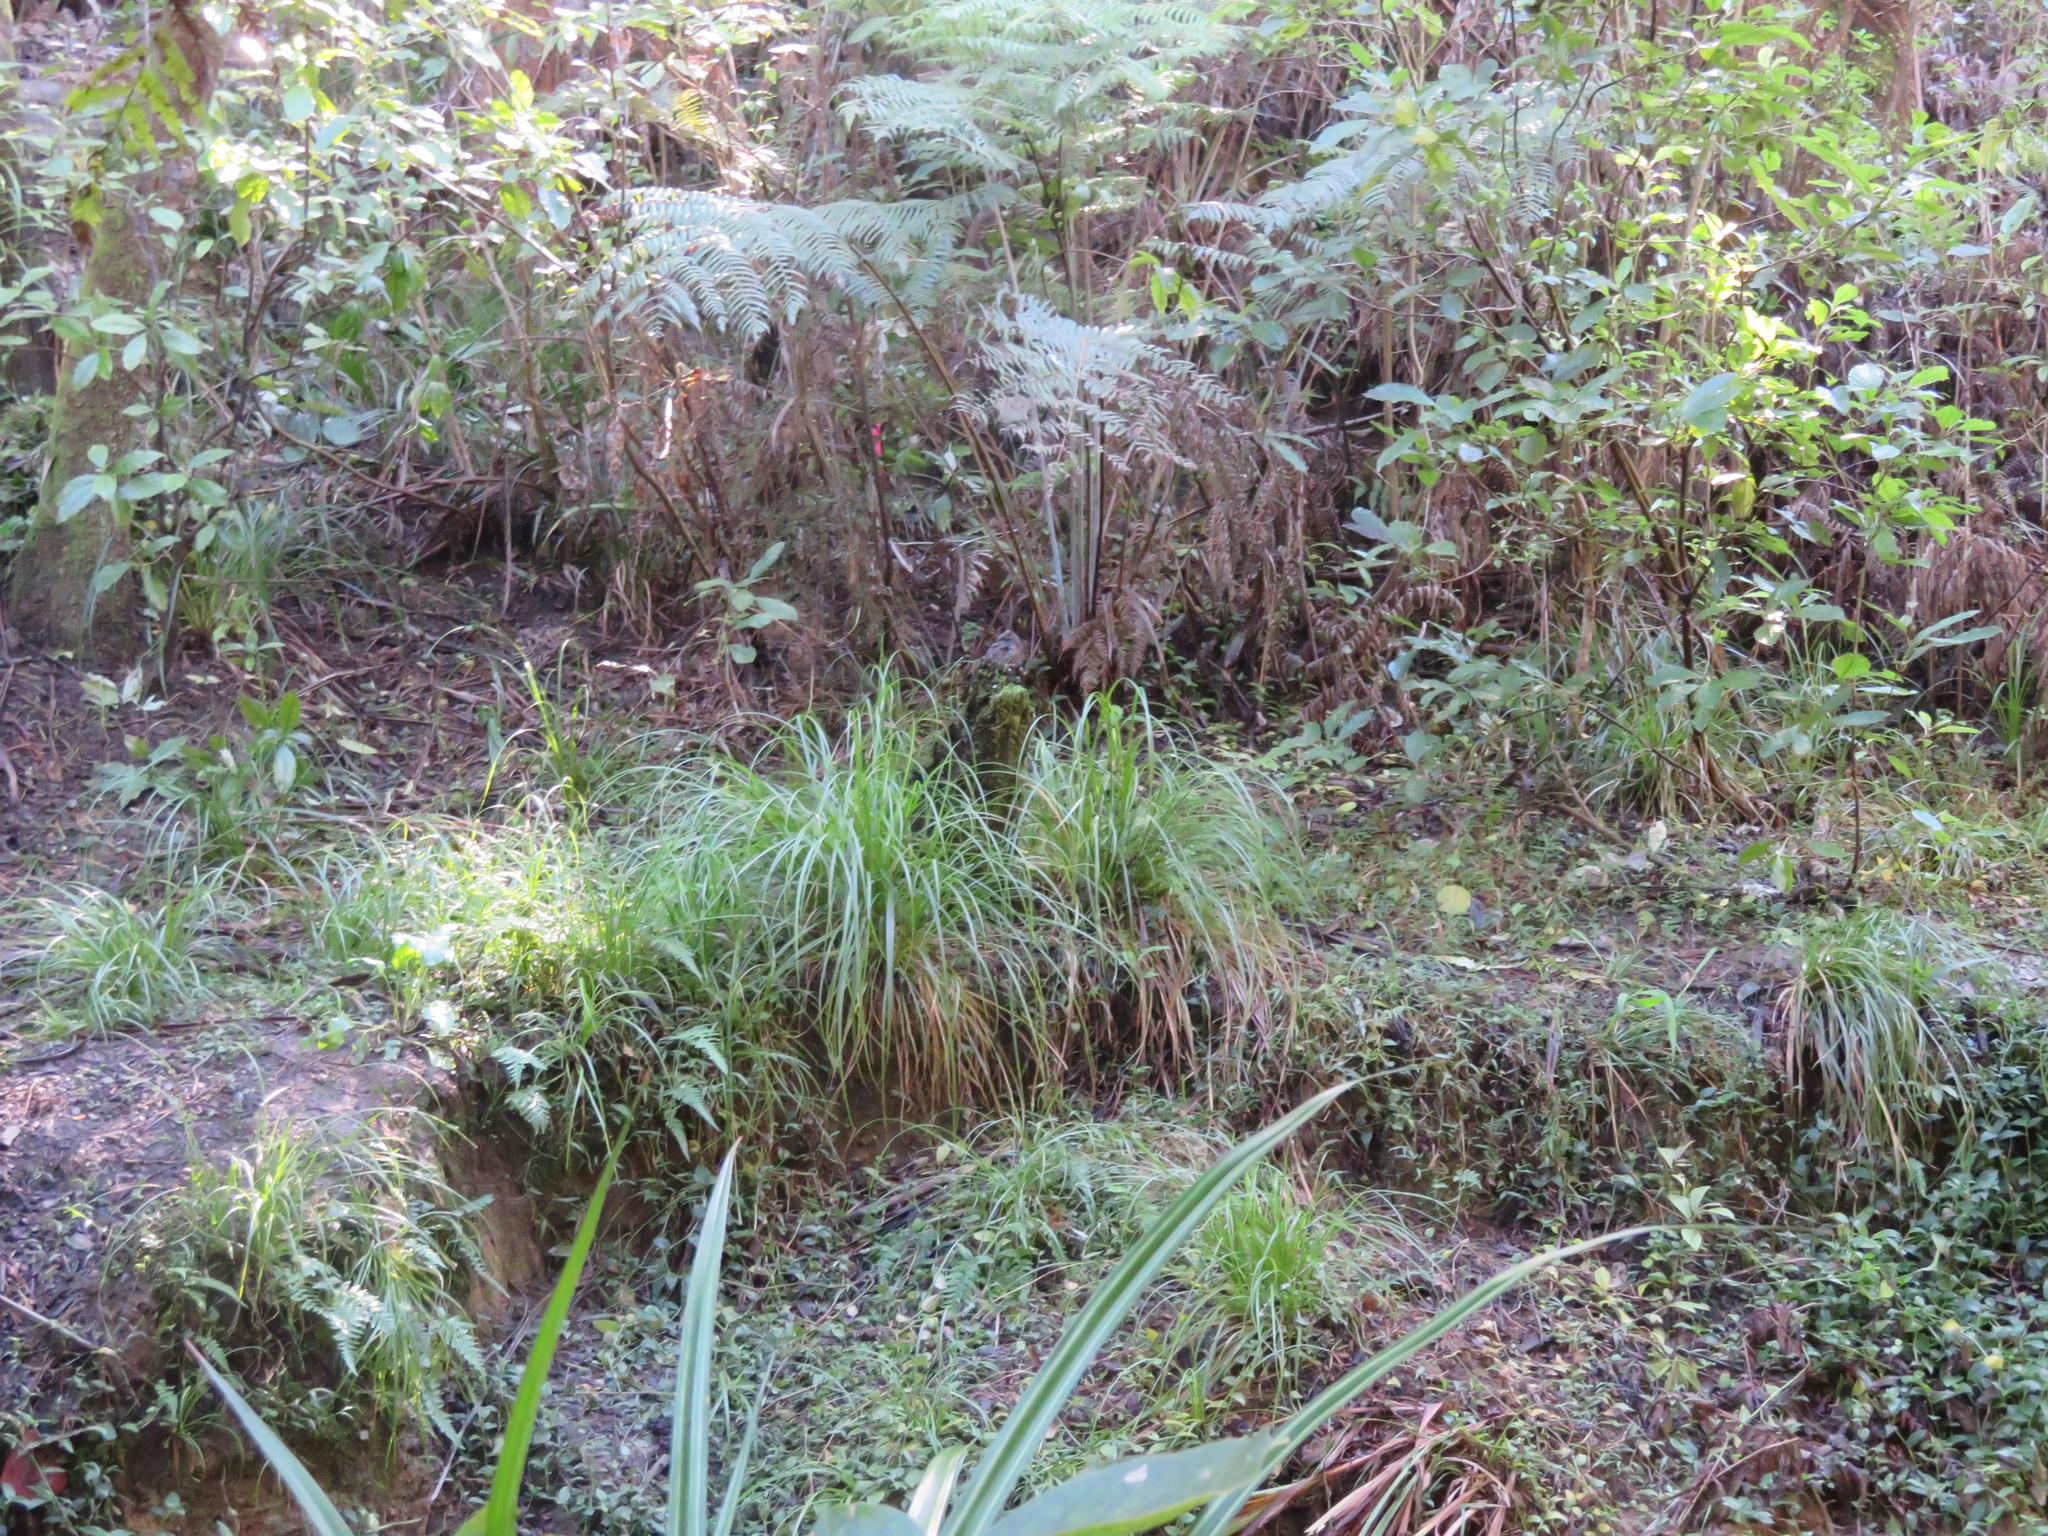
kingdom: Plantae
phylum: Tracheophyta
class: Liliopsida
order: Poales
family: Poaceae
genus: Oplismenus
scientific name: Oplismenus hirtellus
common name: Basketgrass
